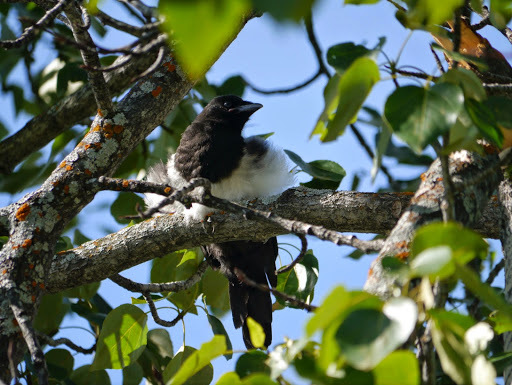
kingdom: Animalia
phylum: Chordata
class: Aves
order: Passeriformes
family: Corvidae
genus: Pica
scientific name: Pica hudsonia
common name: Black-billed magpie
